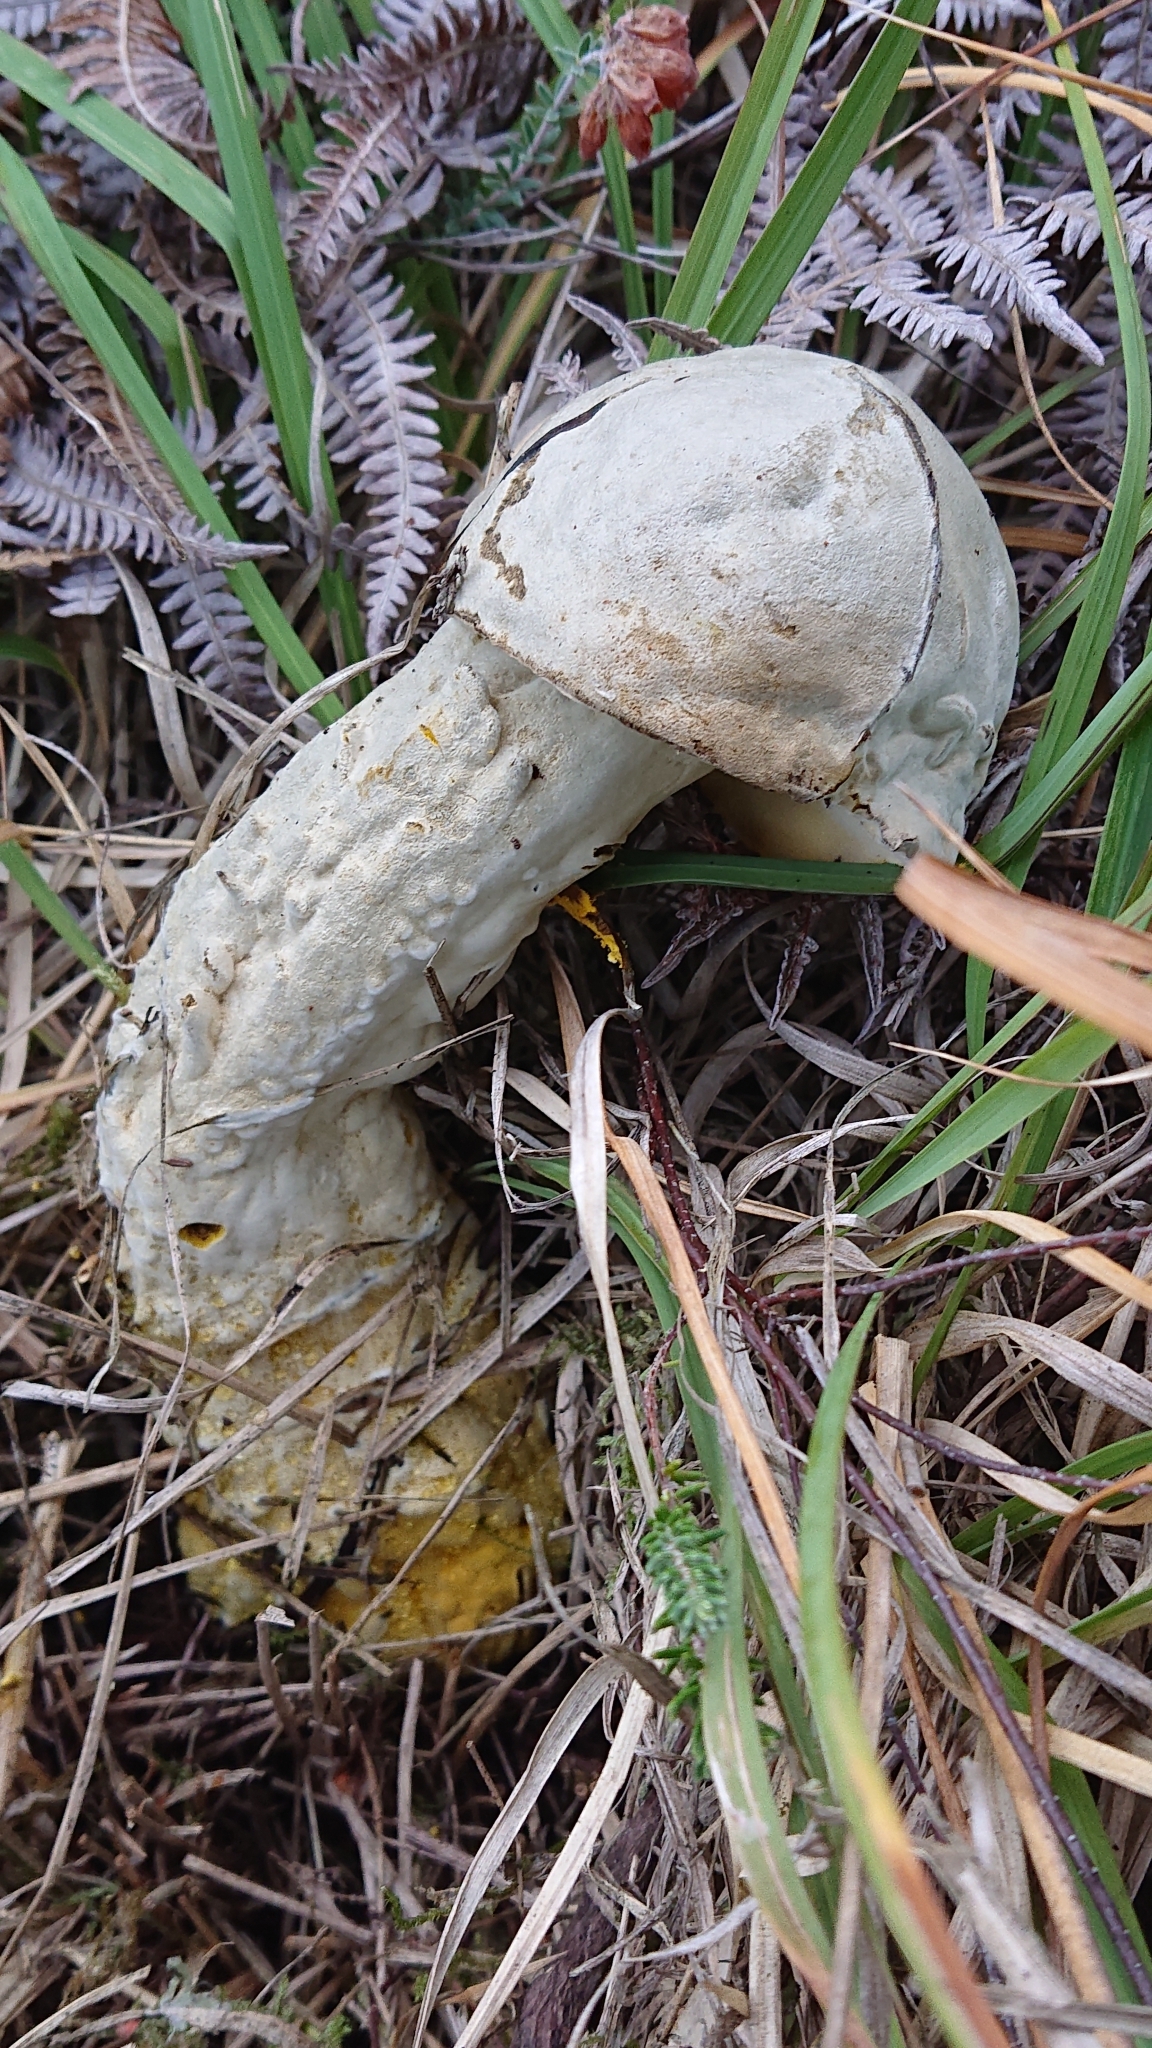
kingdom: Fungi
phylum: Ascomycota
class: Sordariomycetes
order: Hypocreales
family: Hypocreaceae
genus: Hypomyces
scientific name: Hypomyces chrysospermus
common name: Bolete mould
